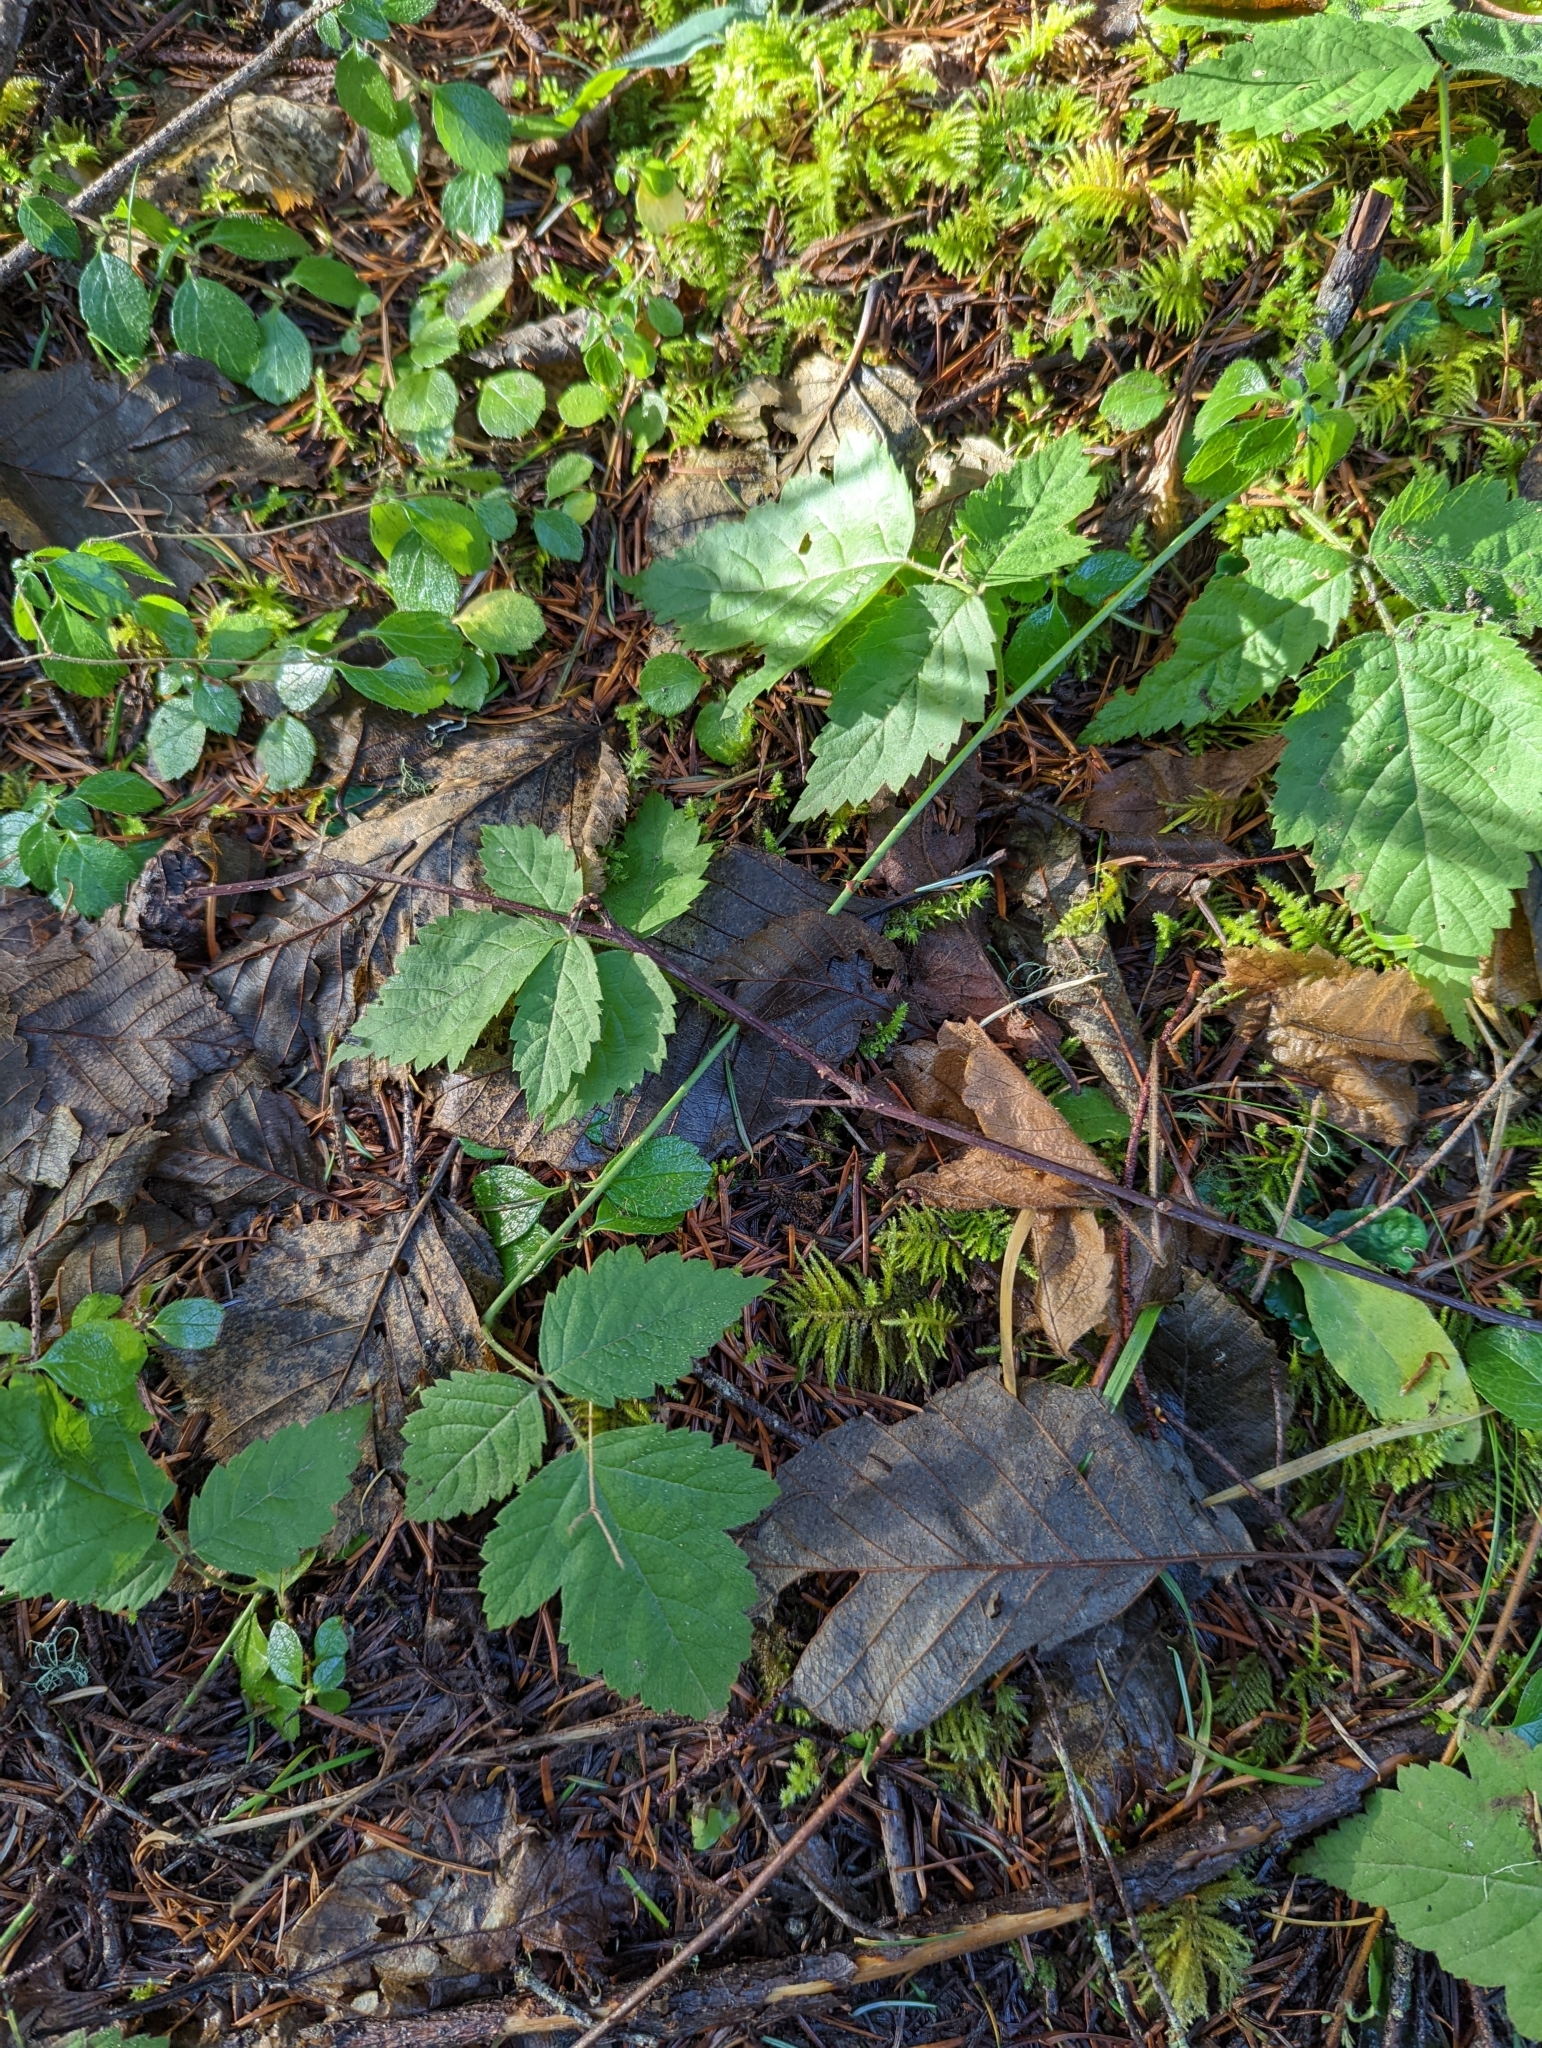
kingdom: Plantae
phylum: Tracheophyta
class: Magnoliopsida
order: Rosales
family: Rosaceae
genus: Rubus
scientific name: Rubus ursinus
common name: Pacific blackberry
